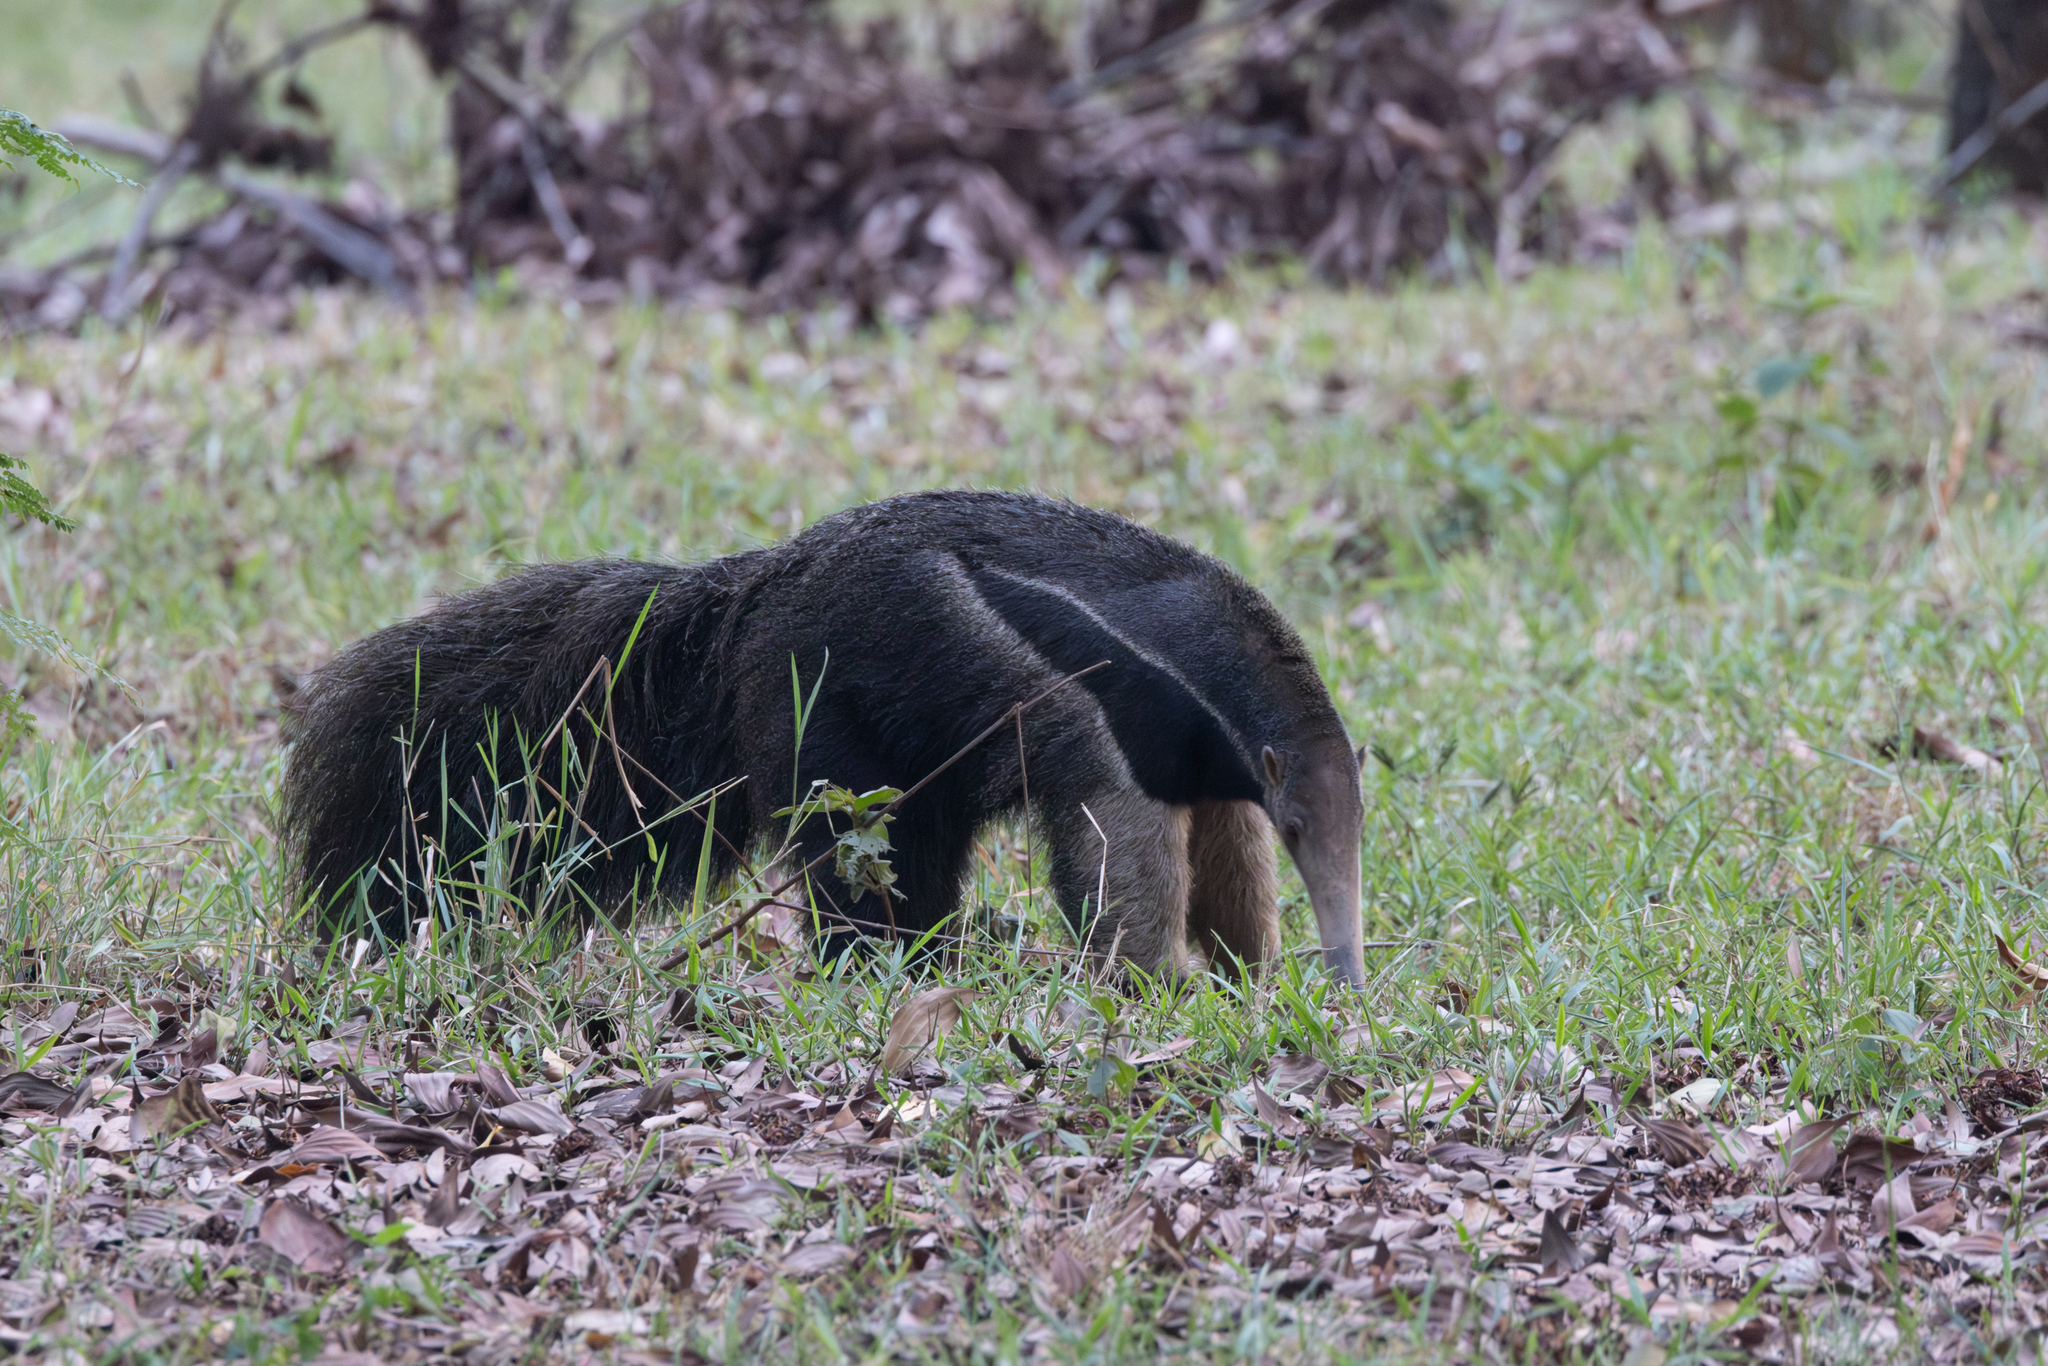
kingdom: Animalia
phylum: Chordata
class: Mammalia
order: Pilosa
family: Myrmecophagidae
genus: Myrmecophaga
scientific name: Myrmecophaga tridactyla
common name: Giant anteater
